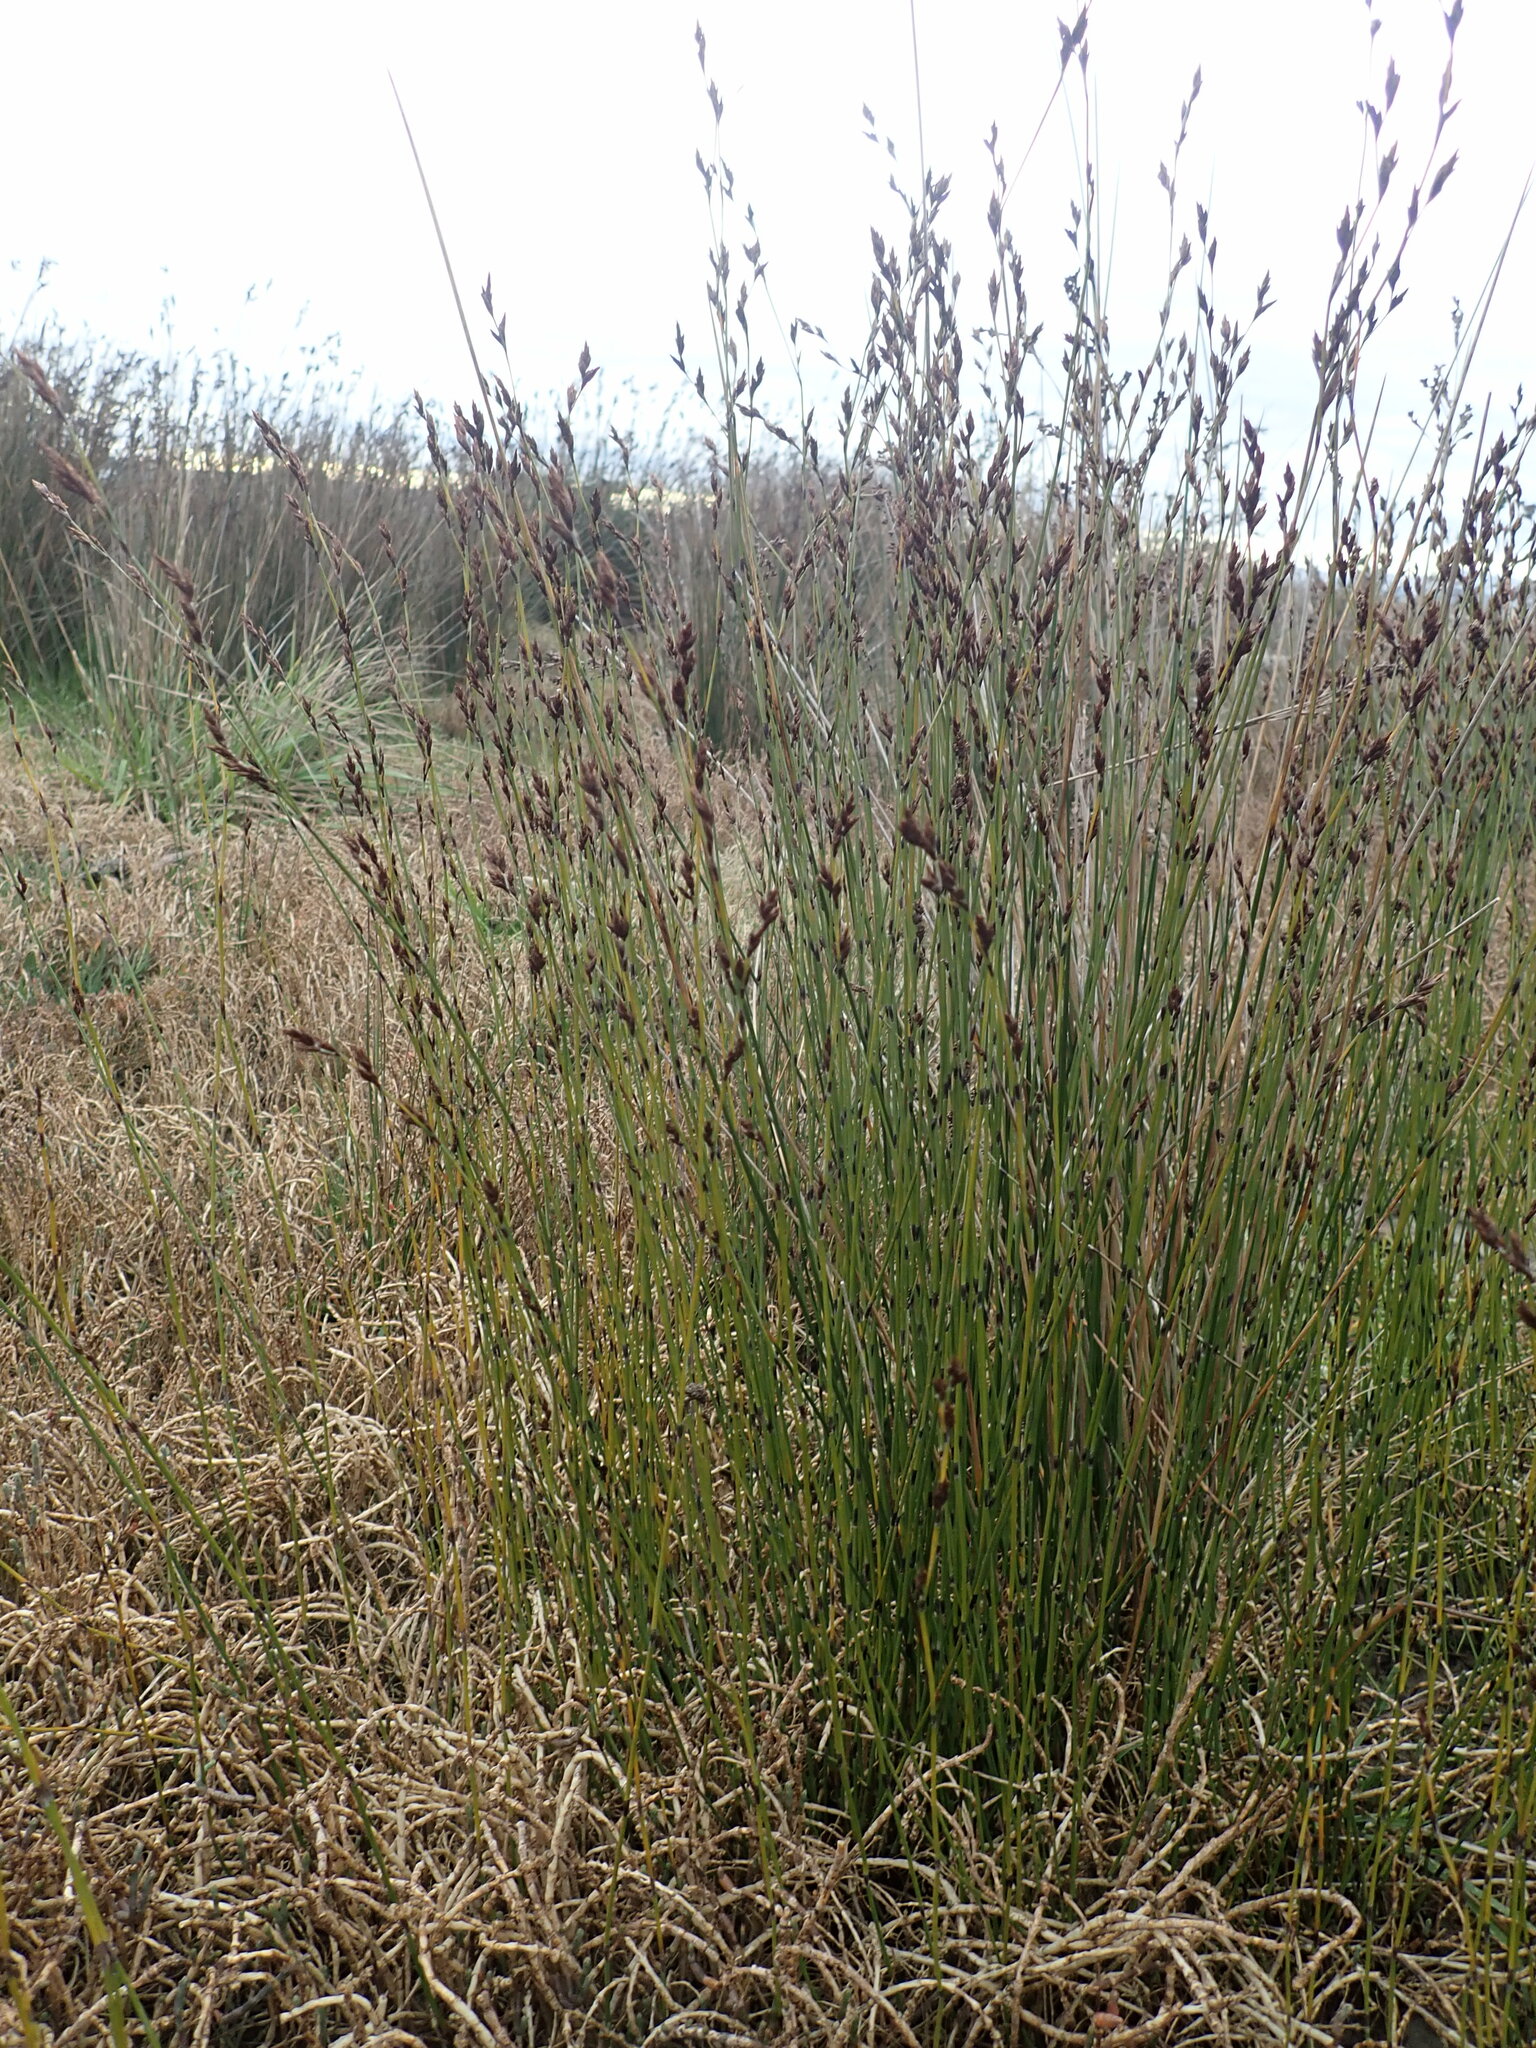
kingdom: Plantae
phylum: Tracheophyta
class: Liliopsida
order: Poales
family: Restionaceae
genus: Apodasmia
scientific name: Apodasmia similis
